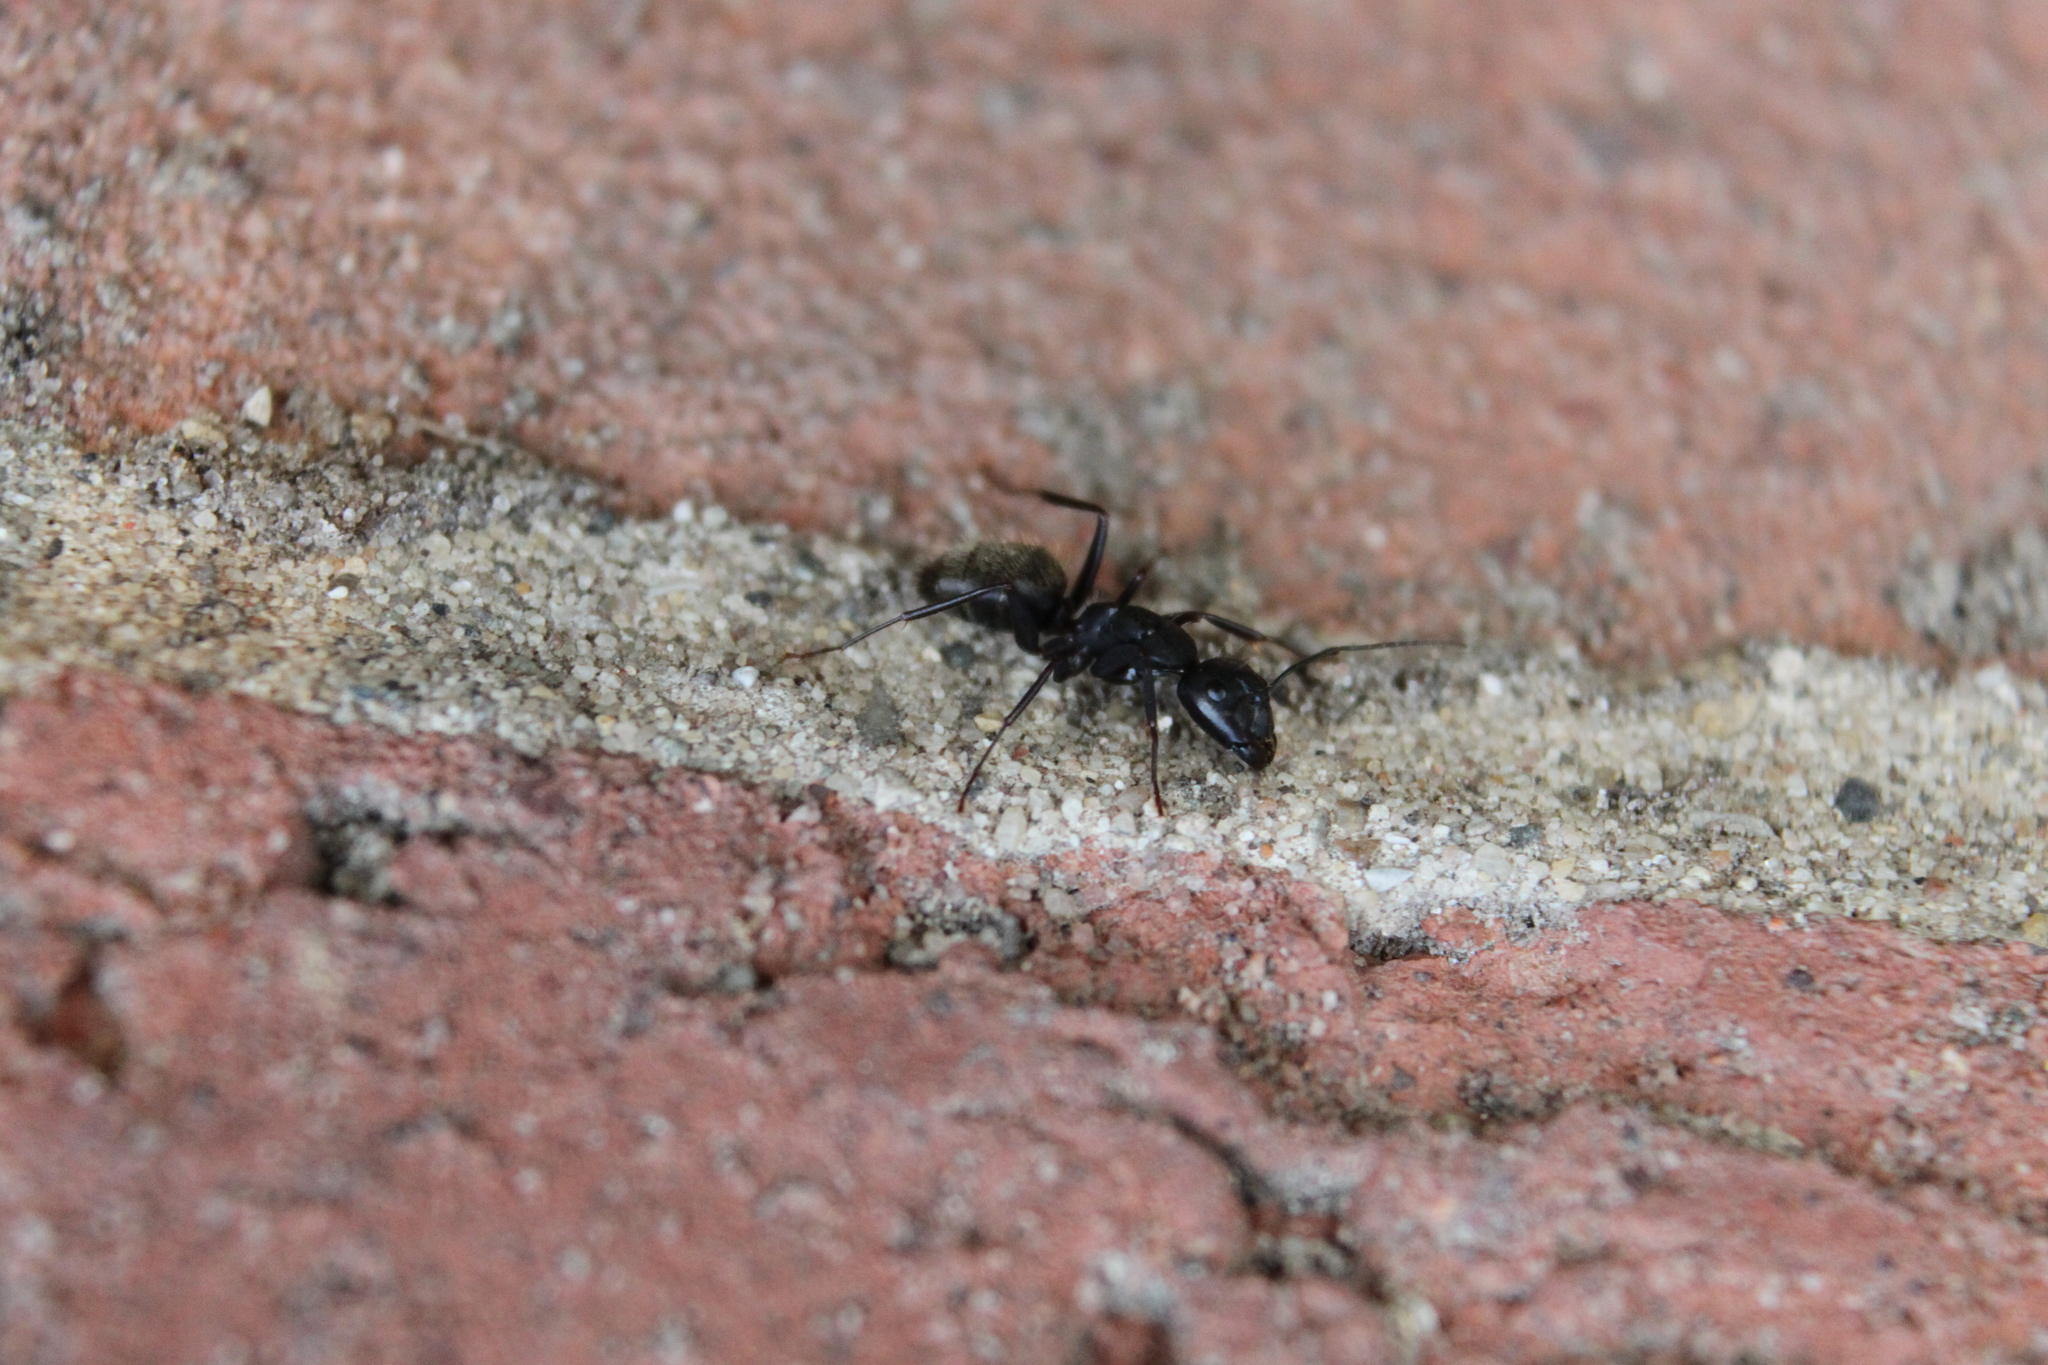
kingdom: Animalia
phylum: Arthropoda
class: Insecta
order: Hymenoptera
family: Formicidae
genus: Camponotus
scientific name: Camponotus pennsylvanicus
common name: Black carpenter ant
